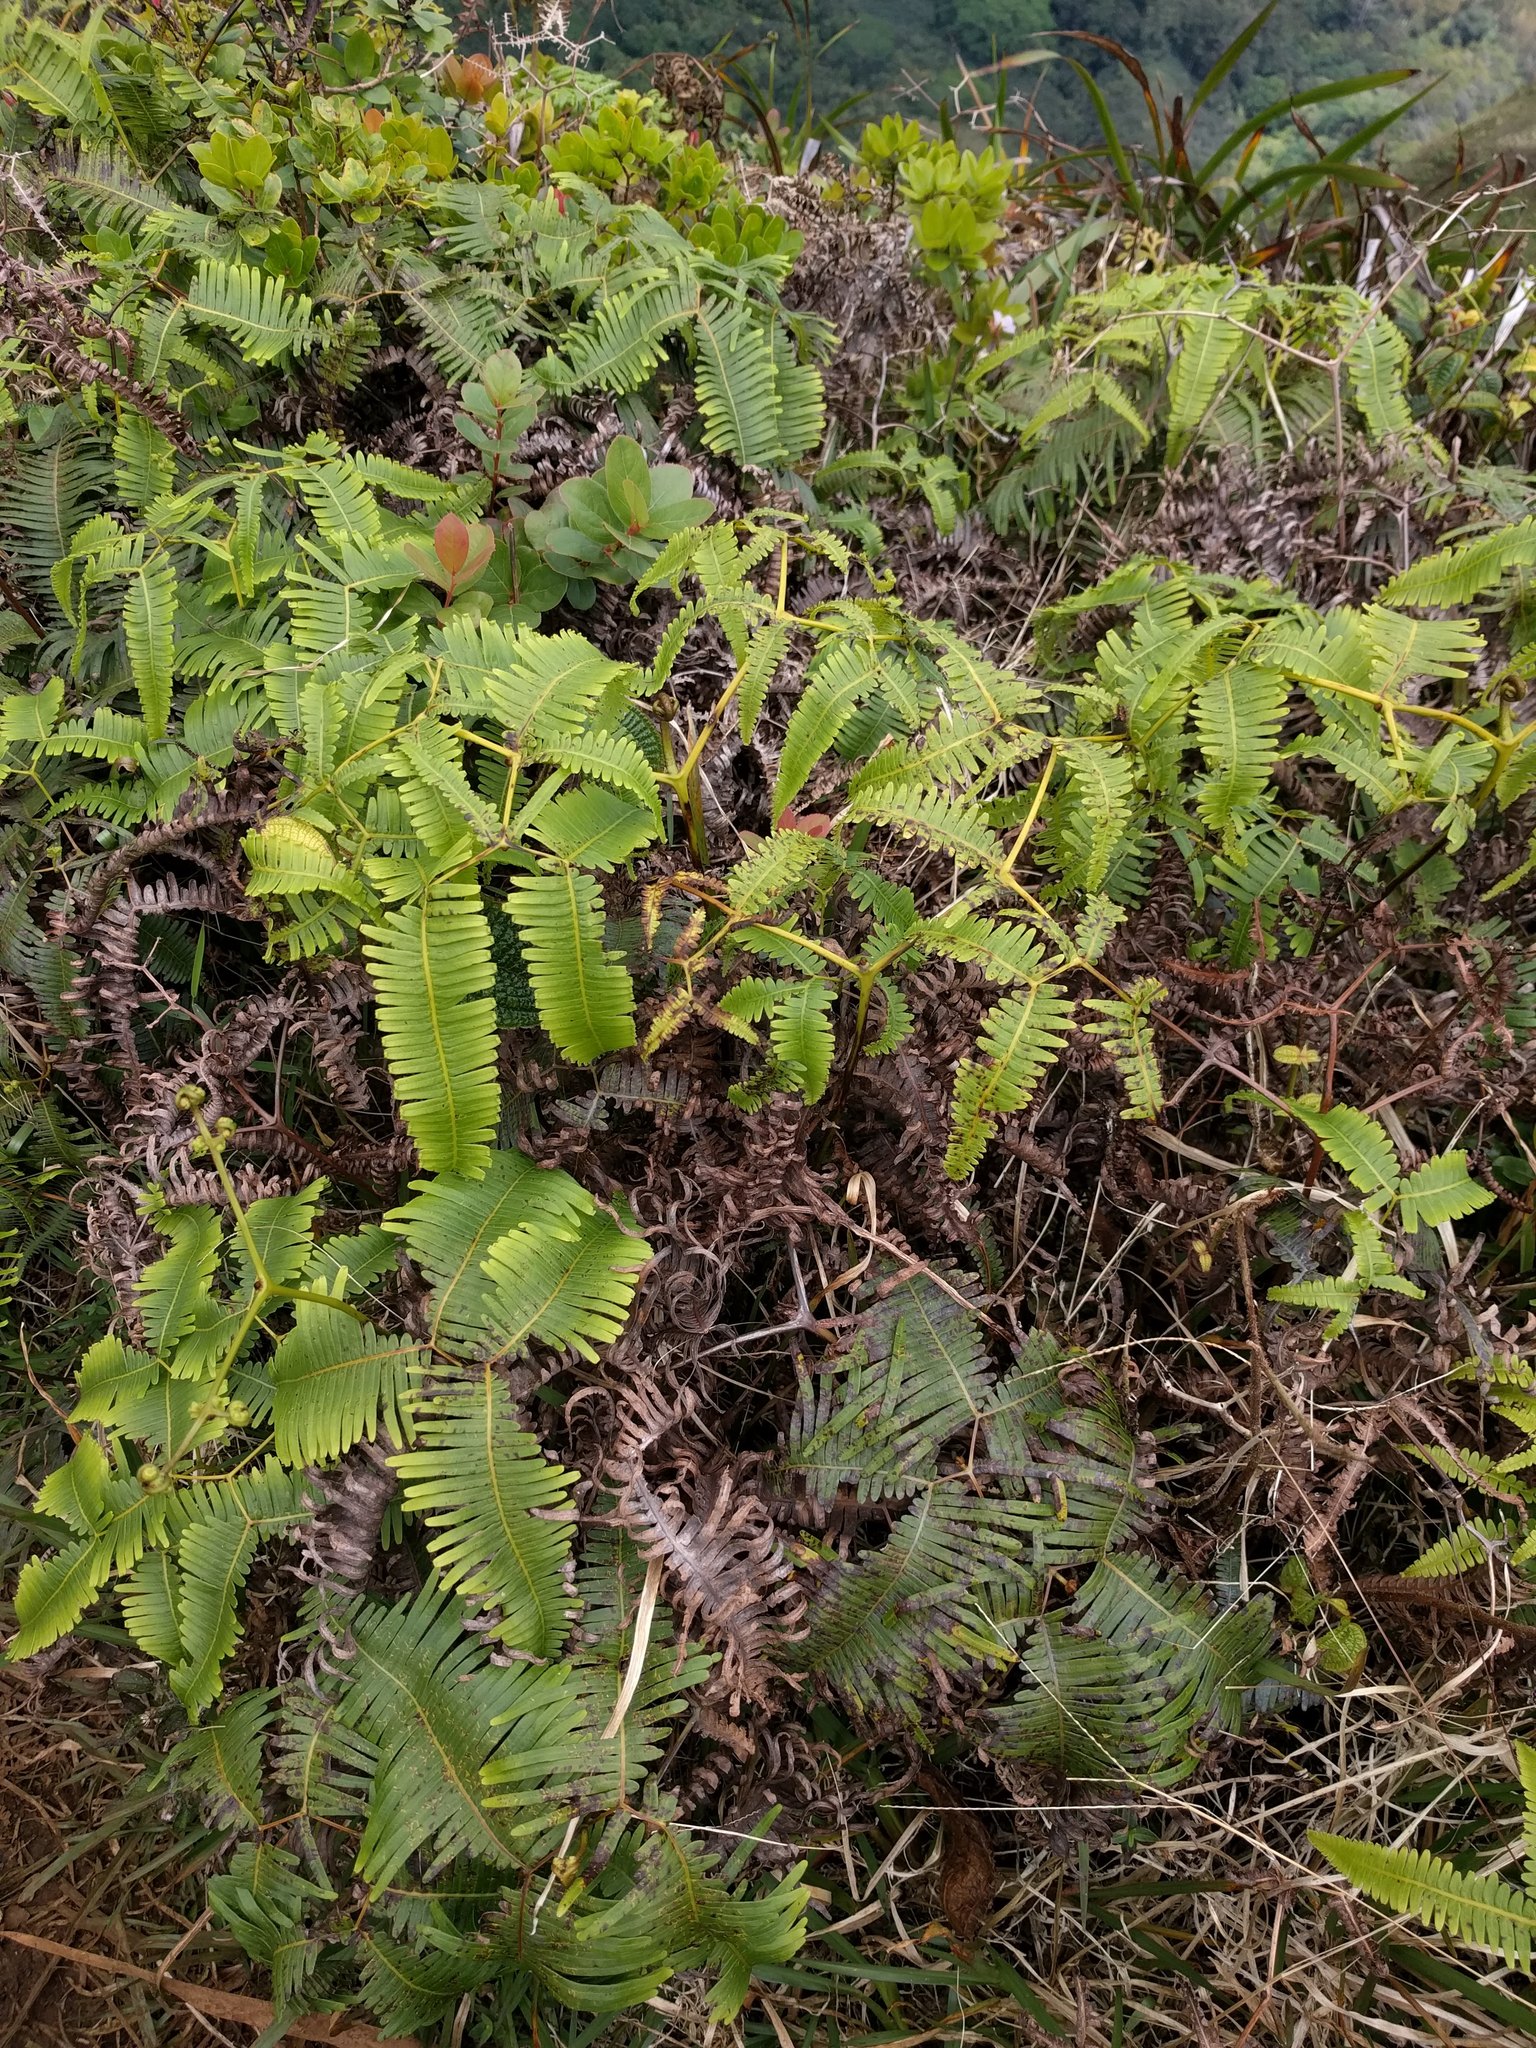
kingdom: Plantae
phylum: Tracheophyta
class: Polypodiopsida
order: Gleicheniales
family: Gleicheniaceae
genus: Dicranopteris
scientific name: Dicranopteris linearis
